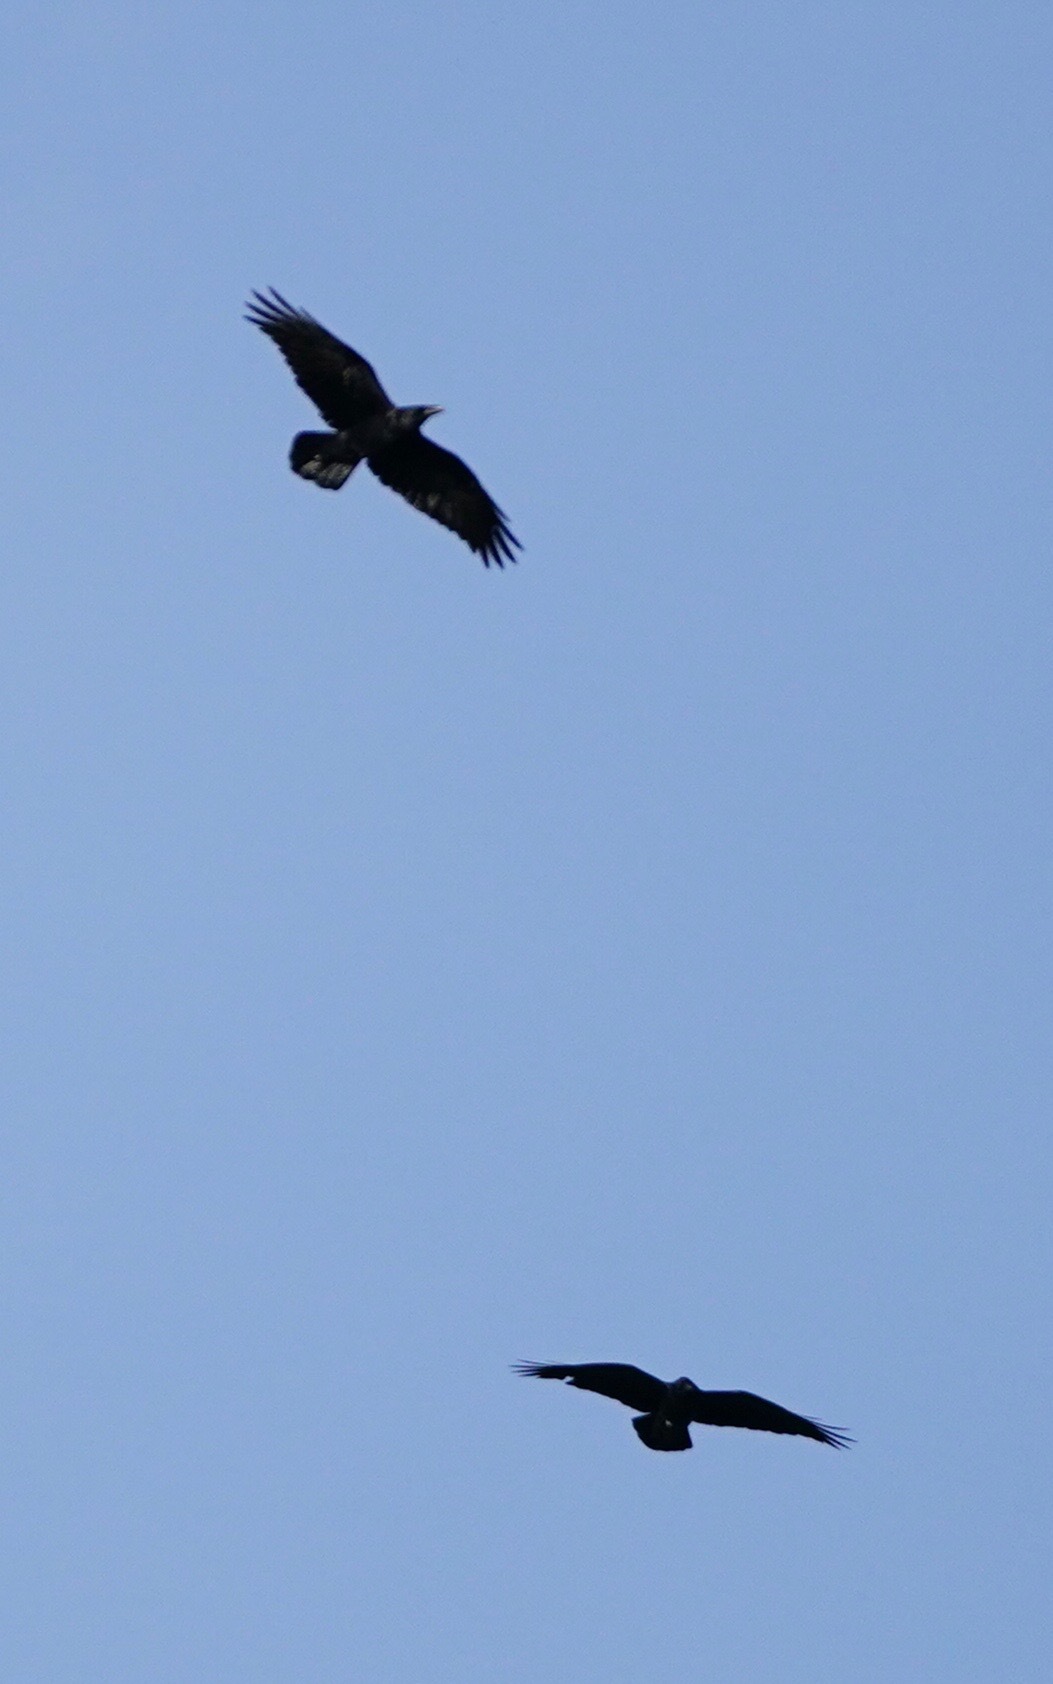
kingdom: Animalia
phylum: Chordata
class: Aves
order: Passeriformes
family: Corvidae
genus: Corvus
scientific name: Corvus corax
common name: Common raven
